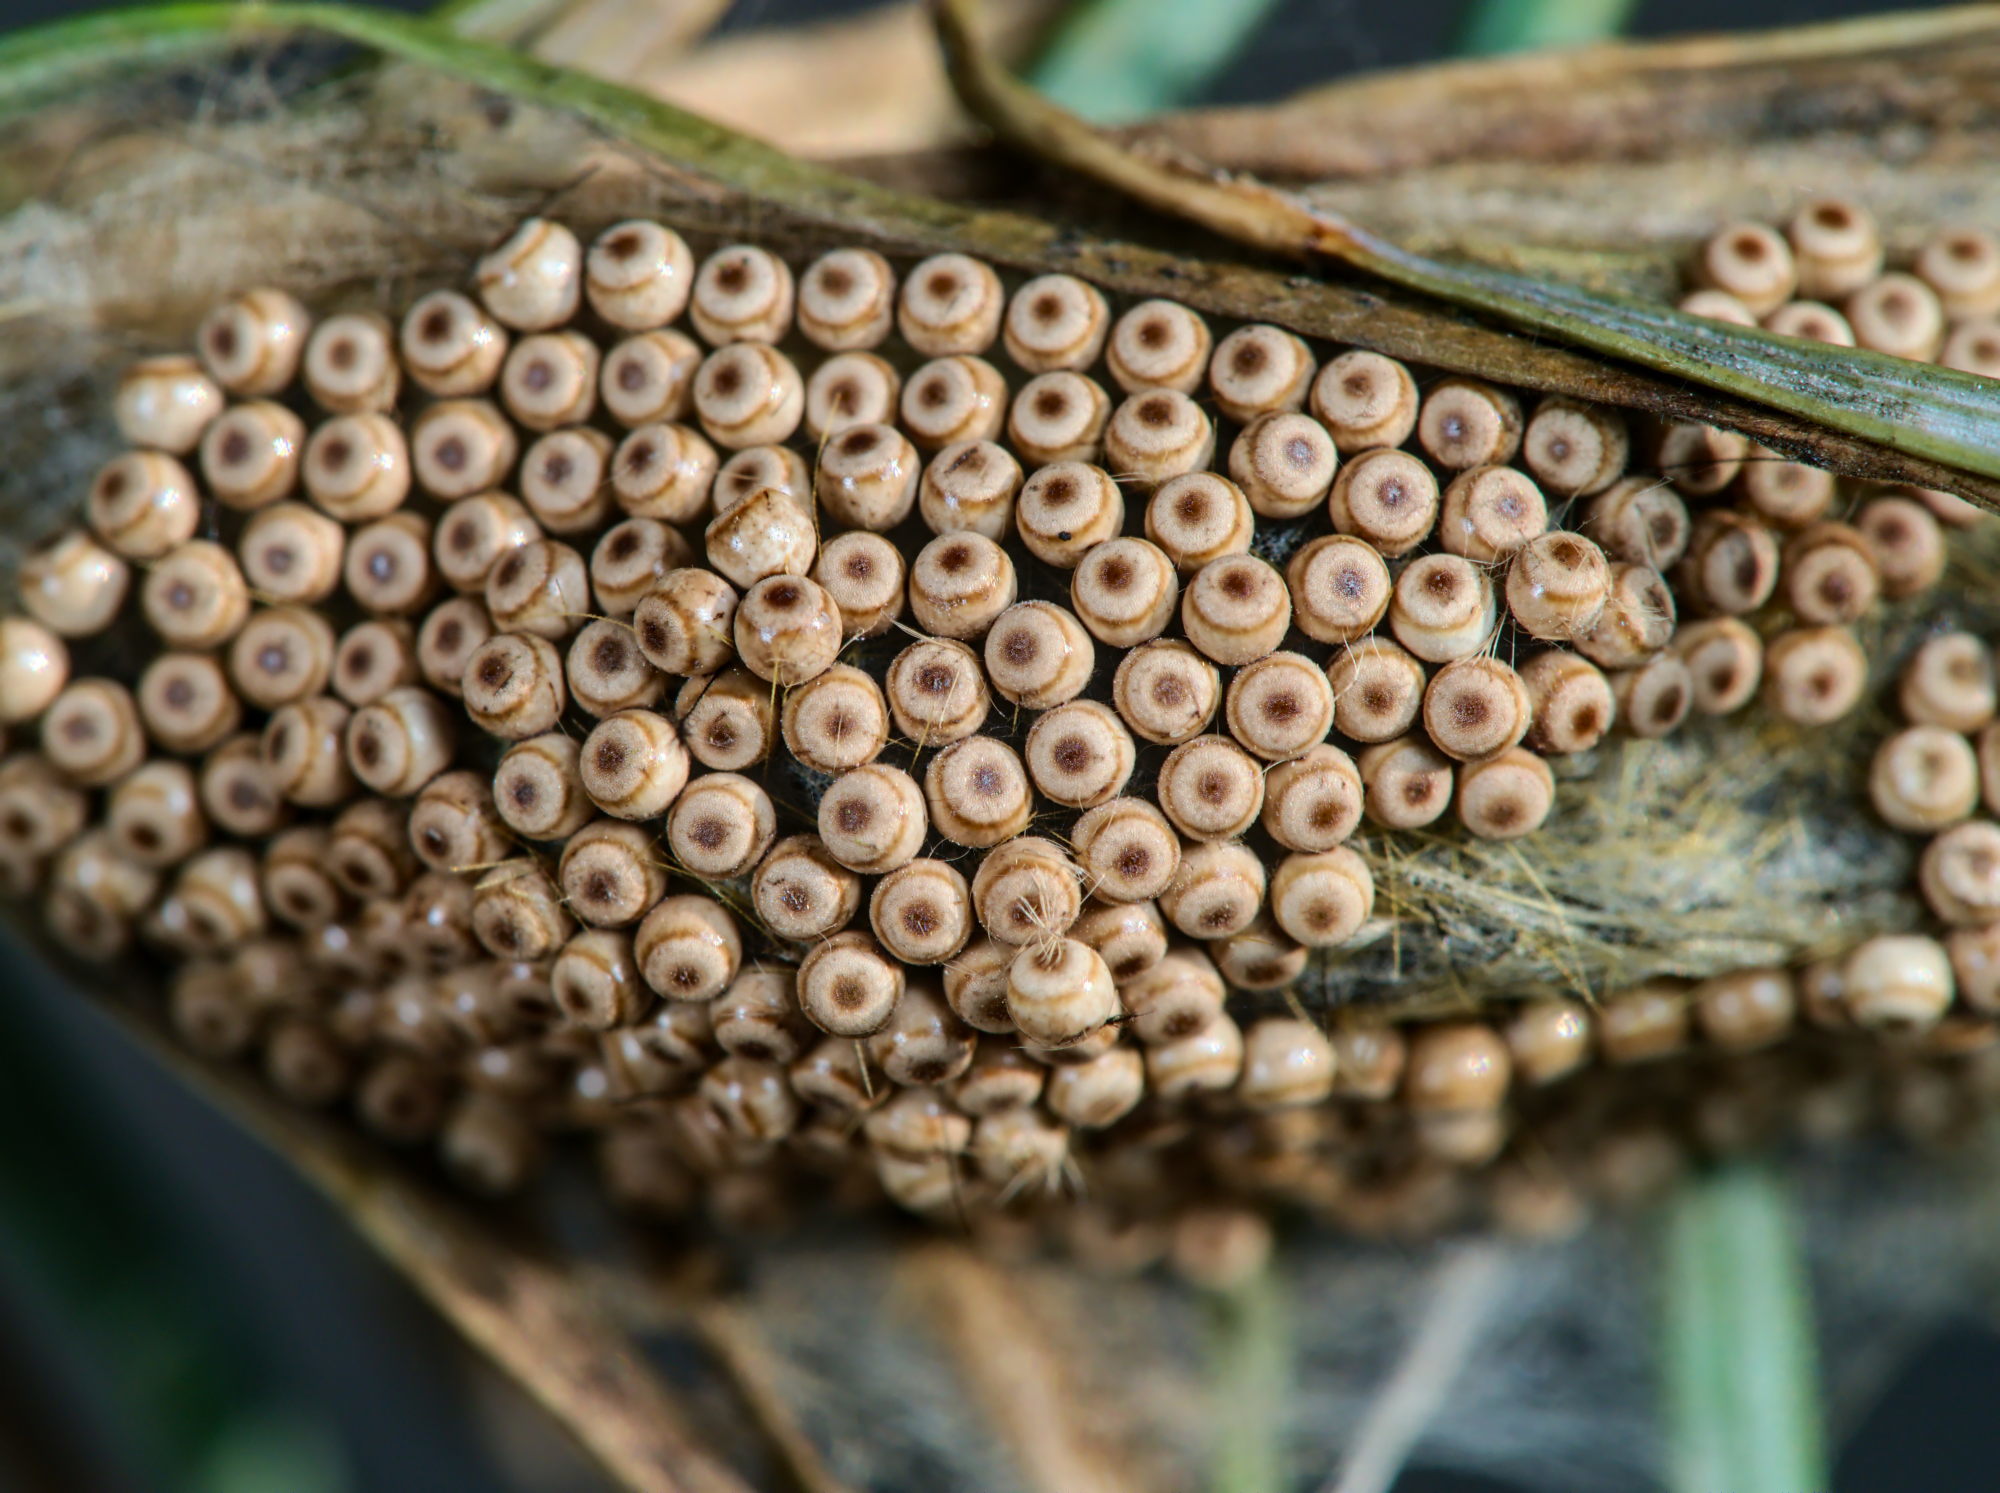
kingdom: Animalia
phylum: Arthropoda
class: Insecta
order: Lepidoptera
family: Erebidae
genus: Orgyia
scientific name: Orgyia antiqua
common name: Vapourer
